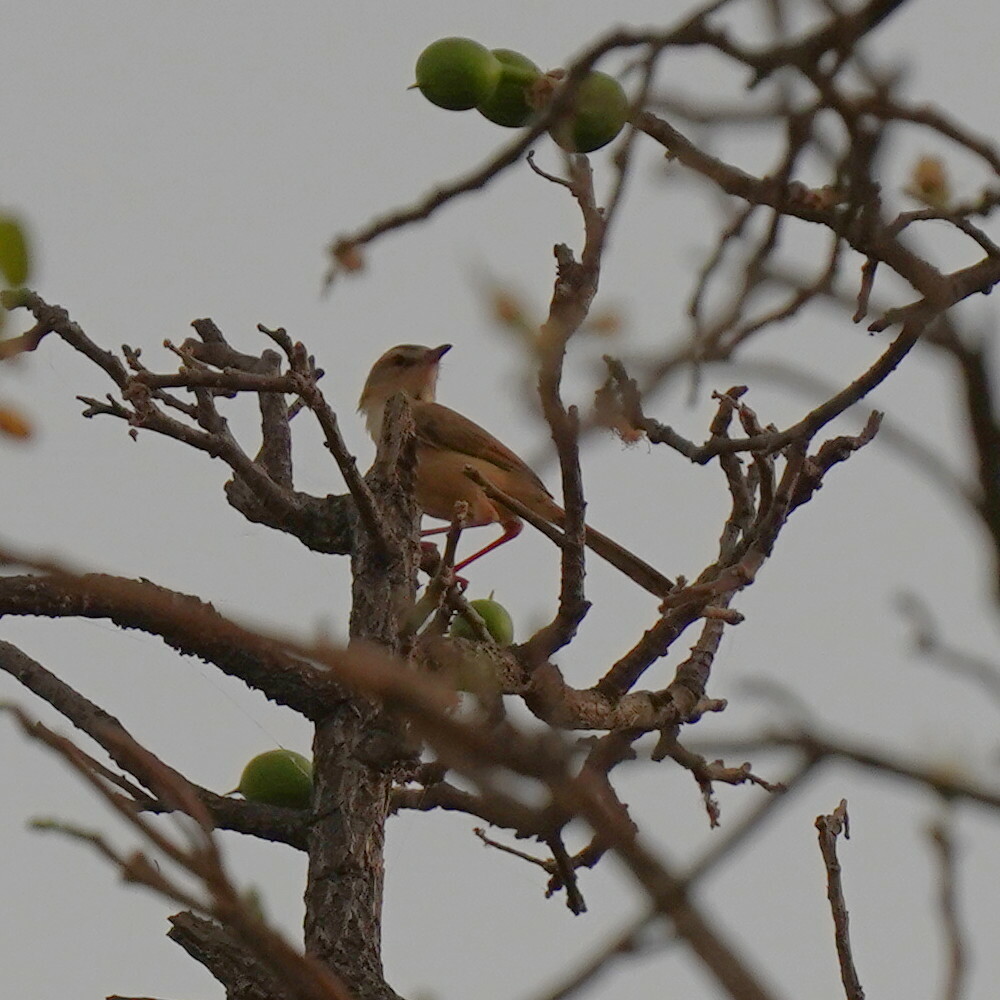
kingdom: Animalia
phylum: Chordata
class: Aves
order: Passeriformes
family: Cisticolidae
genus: Prinia
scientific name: Prinia subflava
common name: Tawny-flanked prinia
